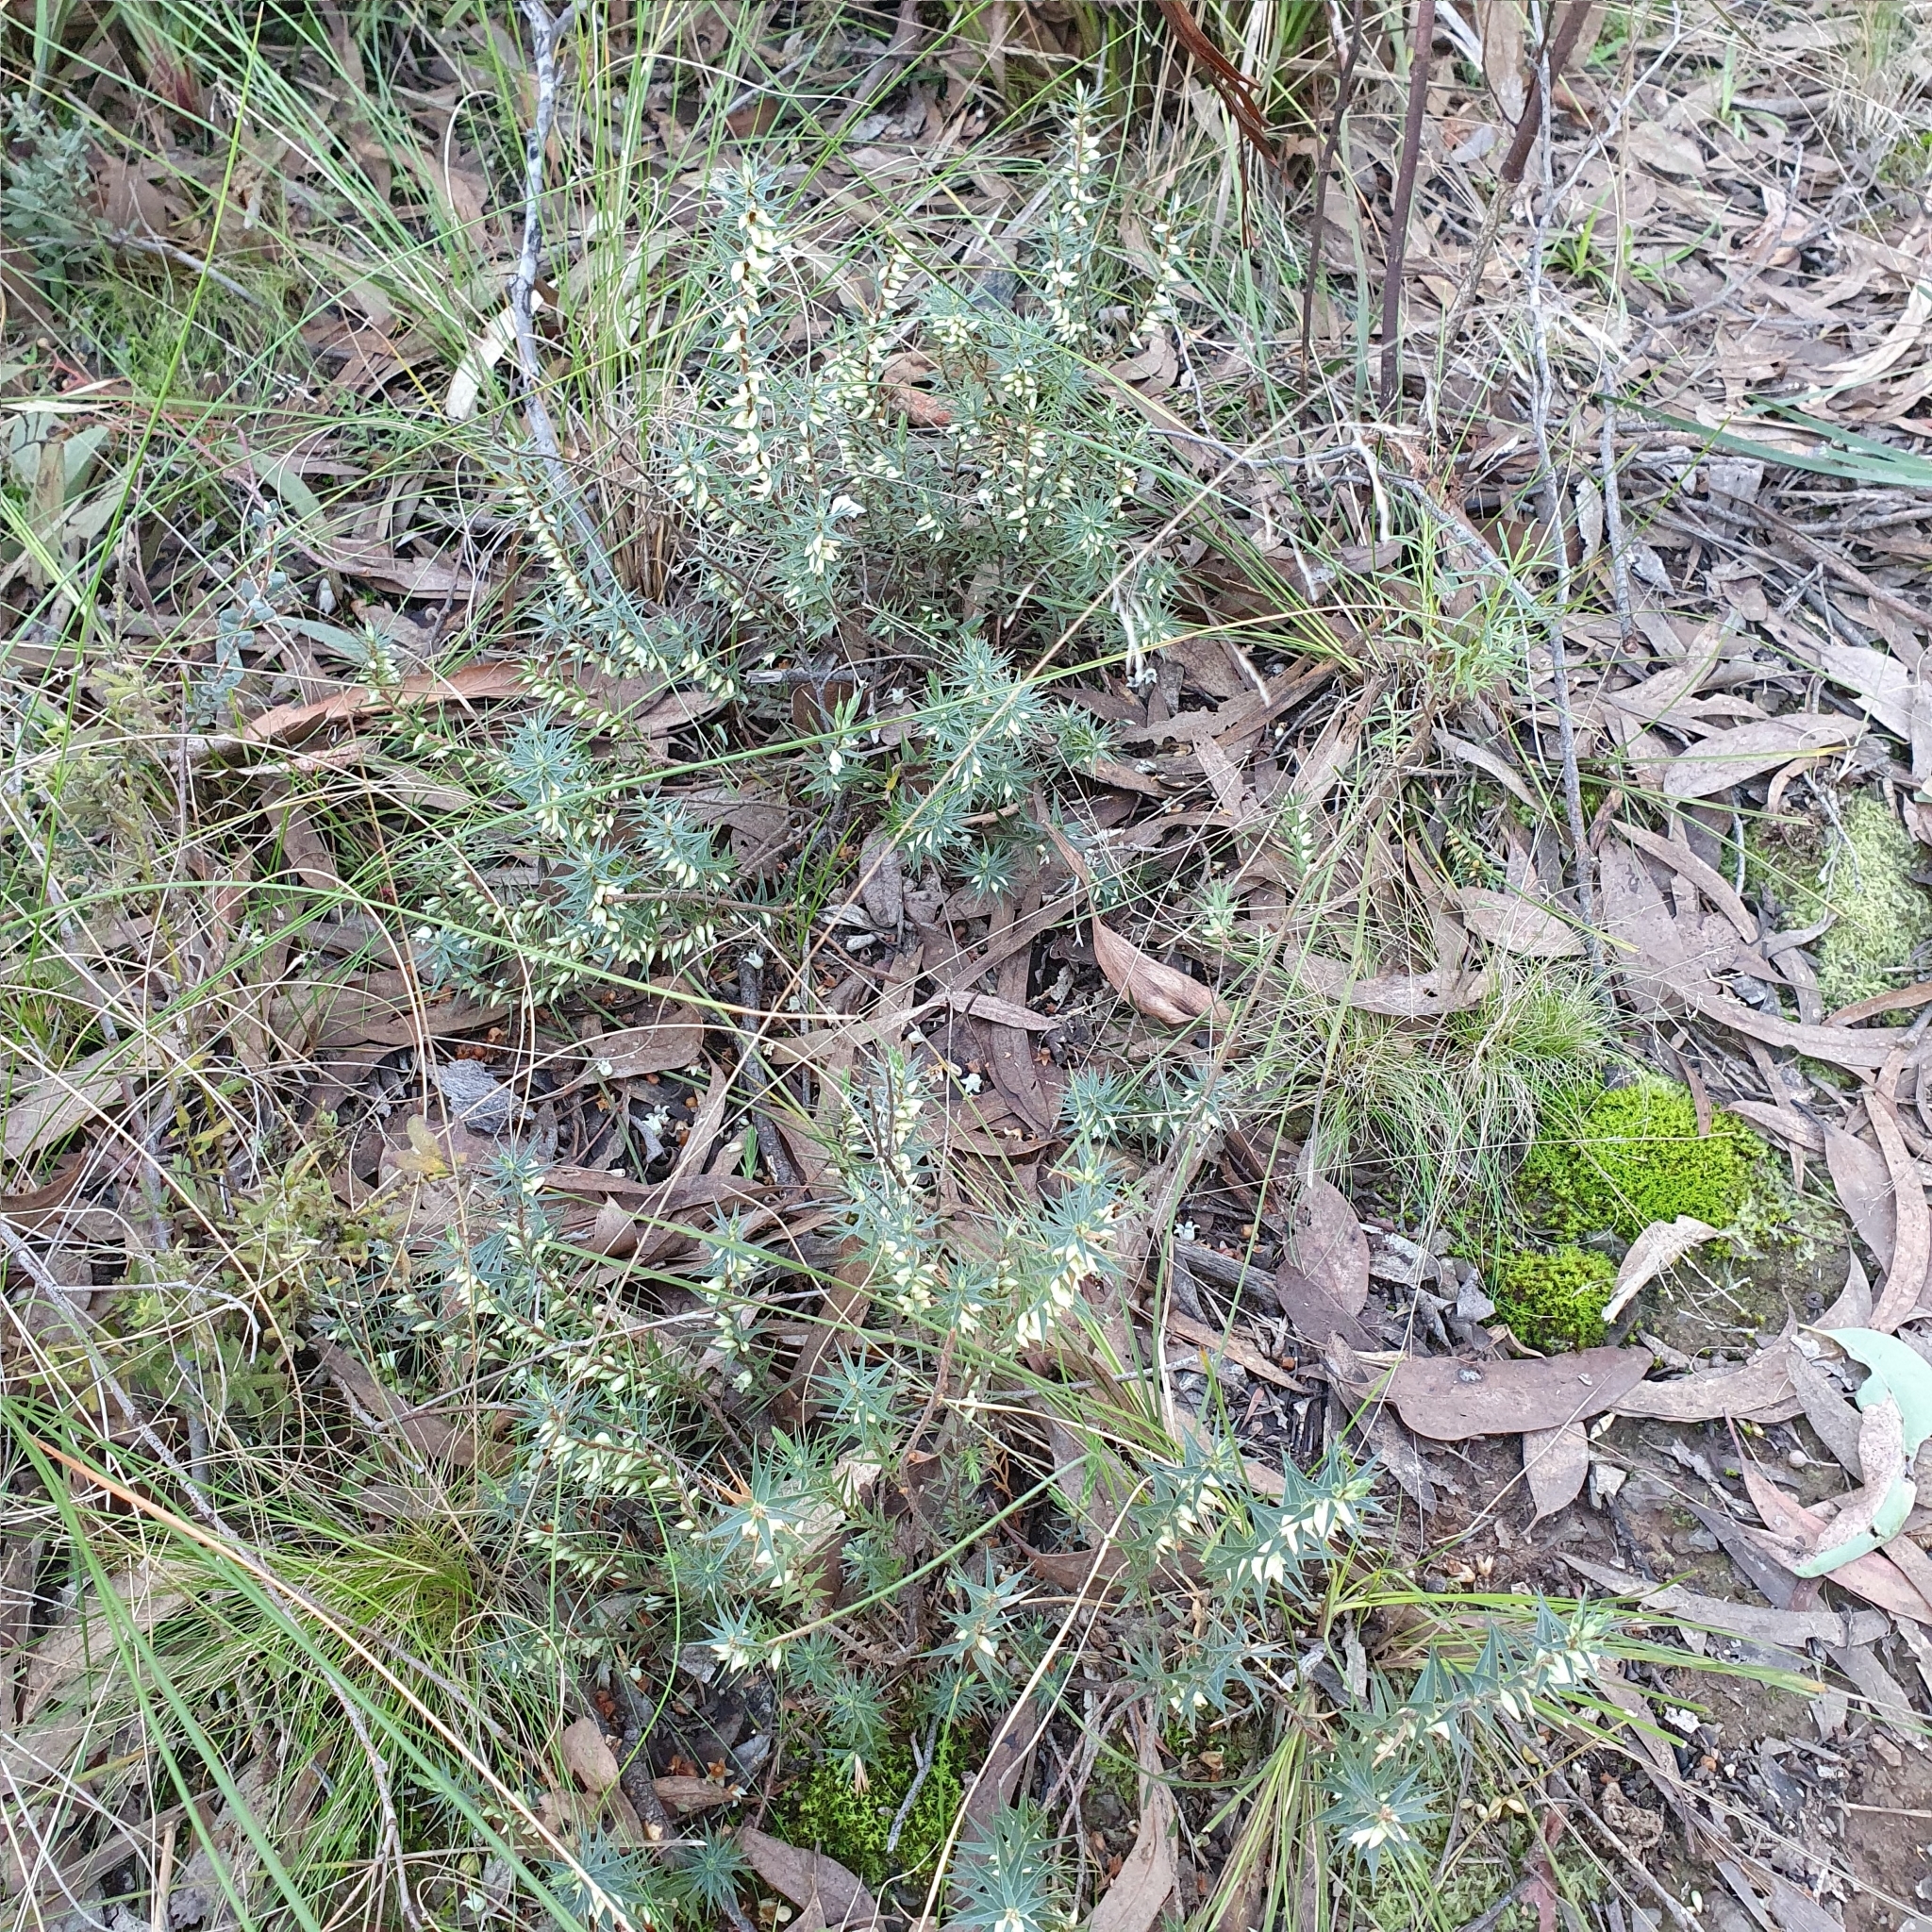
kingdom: Plantae
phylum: Tracheophyta
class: Magnoliopsida
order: Ericales
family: Ericaceae
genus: Melichrus
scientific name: Melichrus urceolatus
